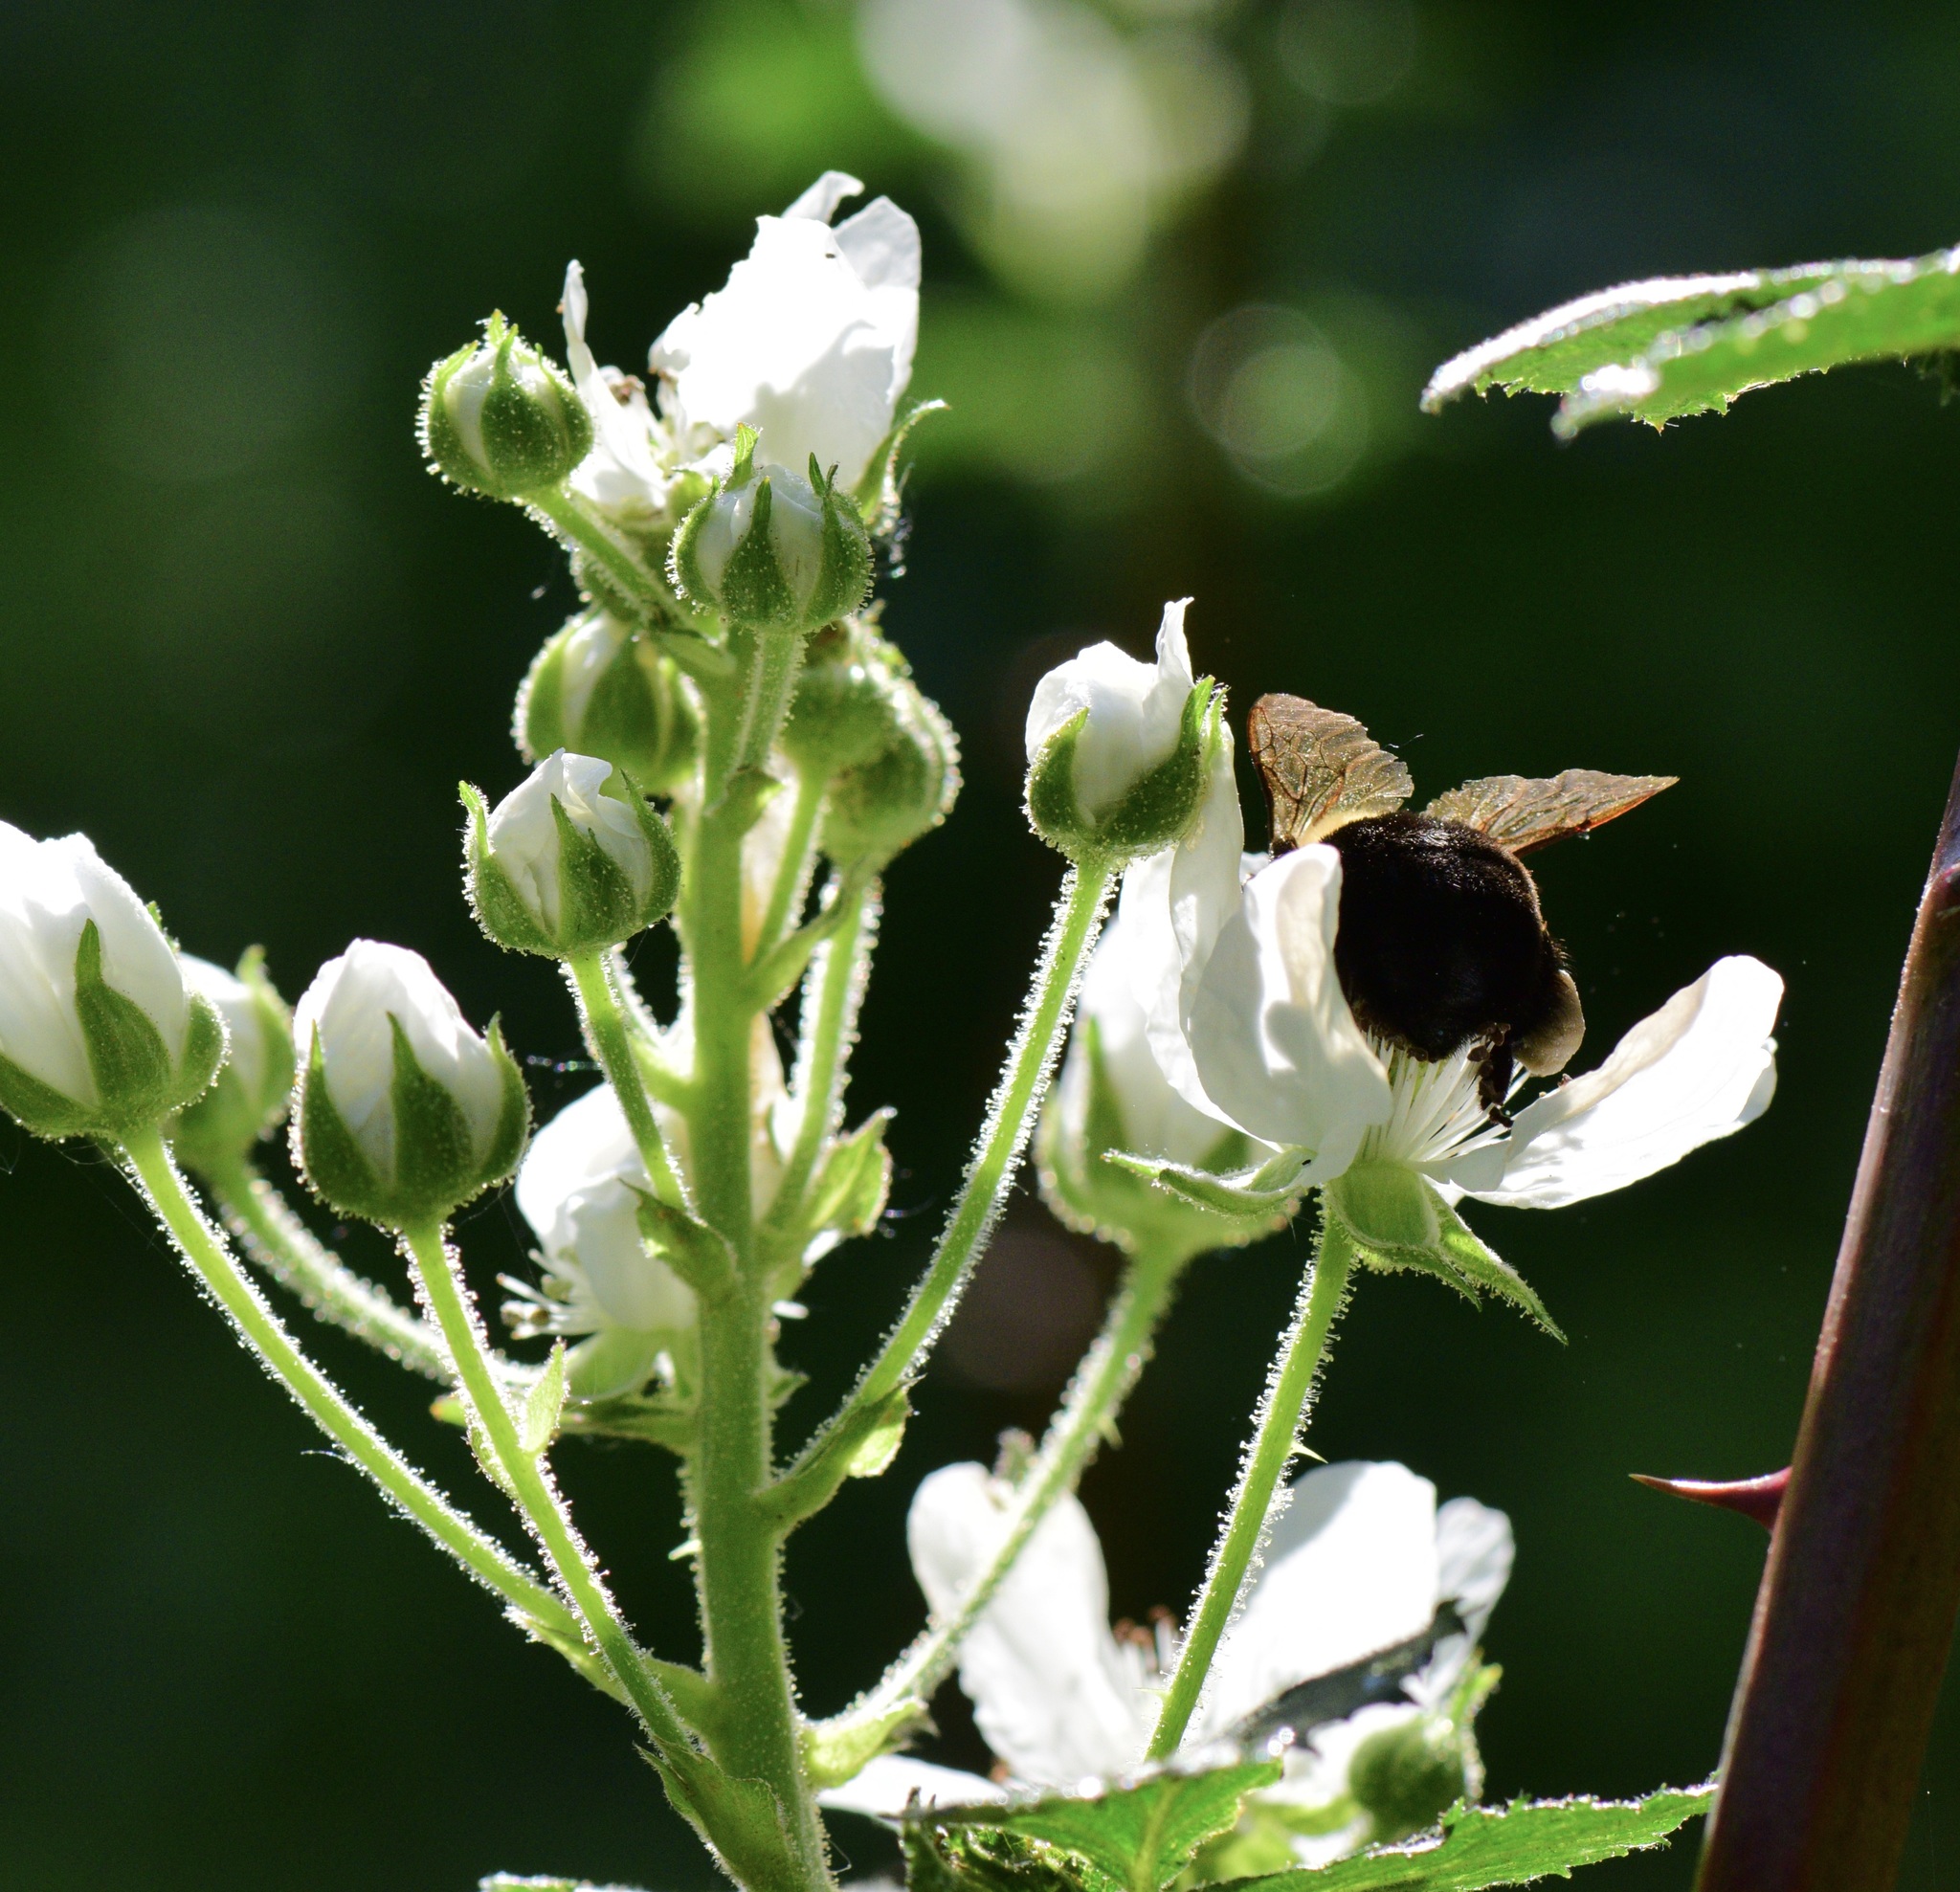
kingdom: Animalia
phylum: Arthropoda
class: Insecta
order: Hymenoptera
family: Apidae
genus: Bombus
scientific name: Bombus impatiens
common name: Common eastern bumble bee
